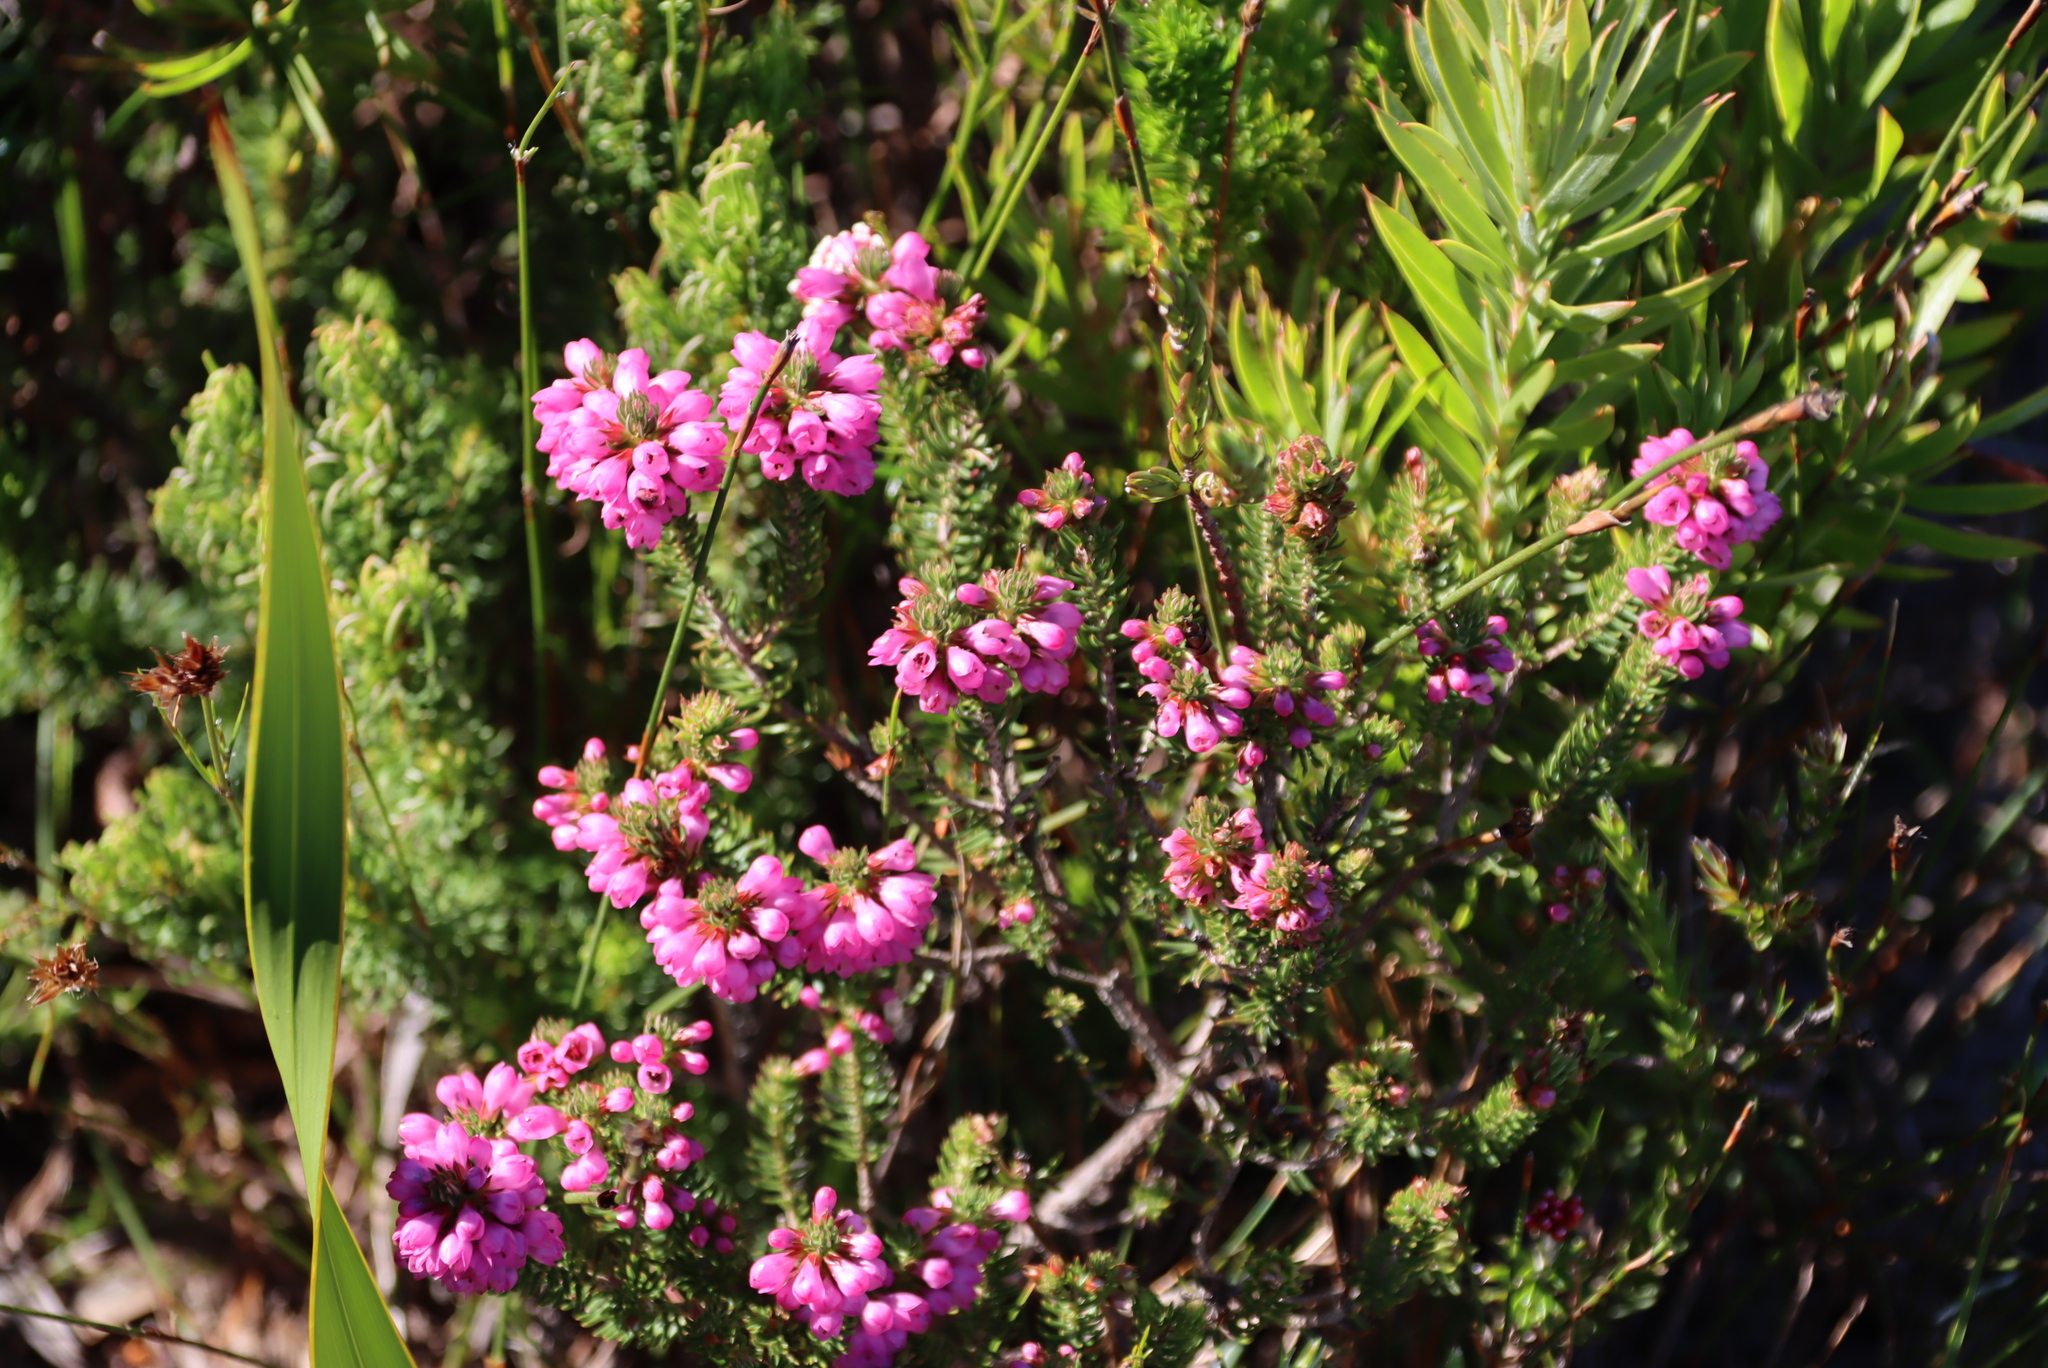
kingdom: Plantae
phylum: Tracheophyta
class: Magnoliopsida
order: Ericales
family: Ericaceae
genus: Erica
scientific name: Erica abietina
